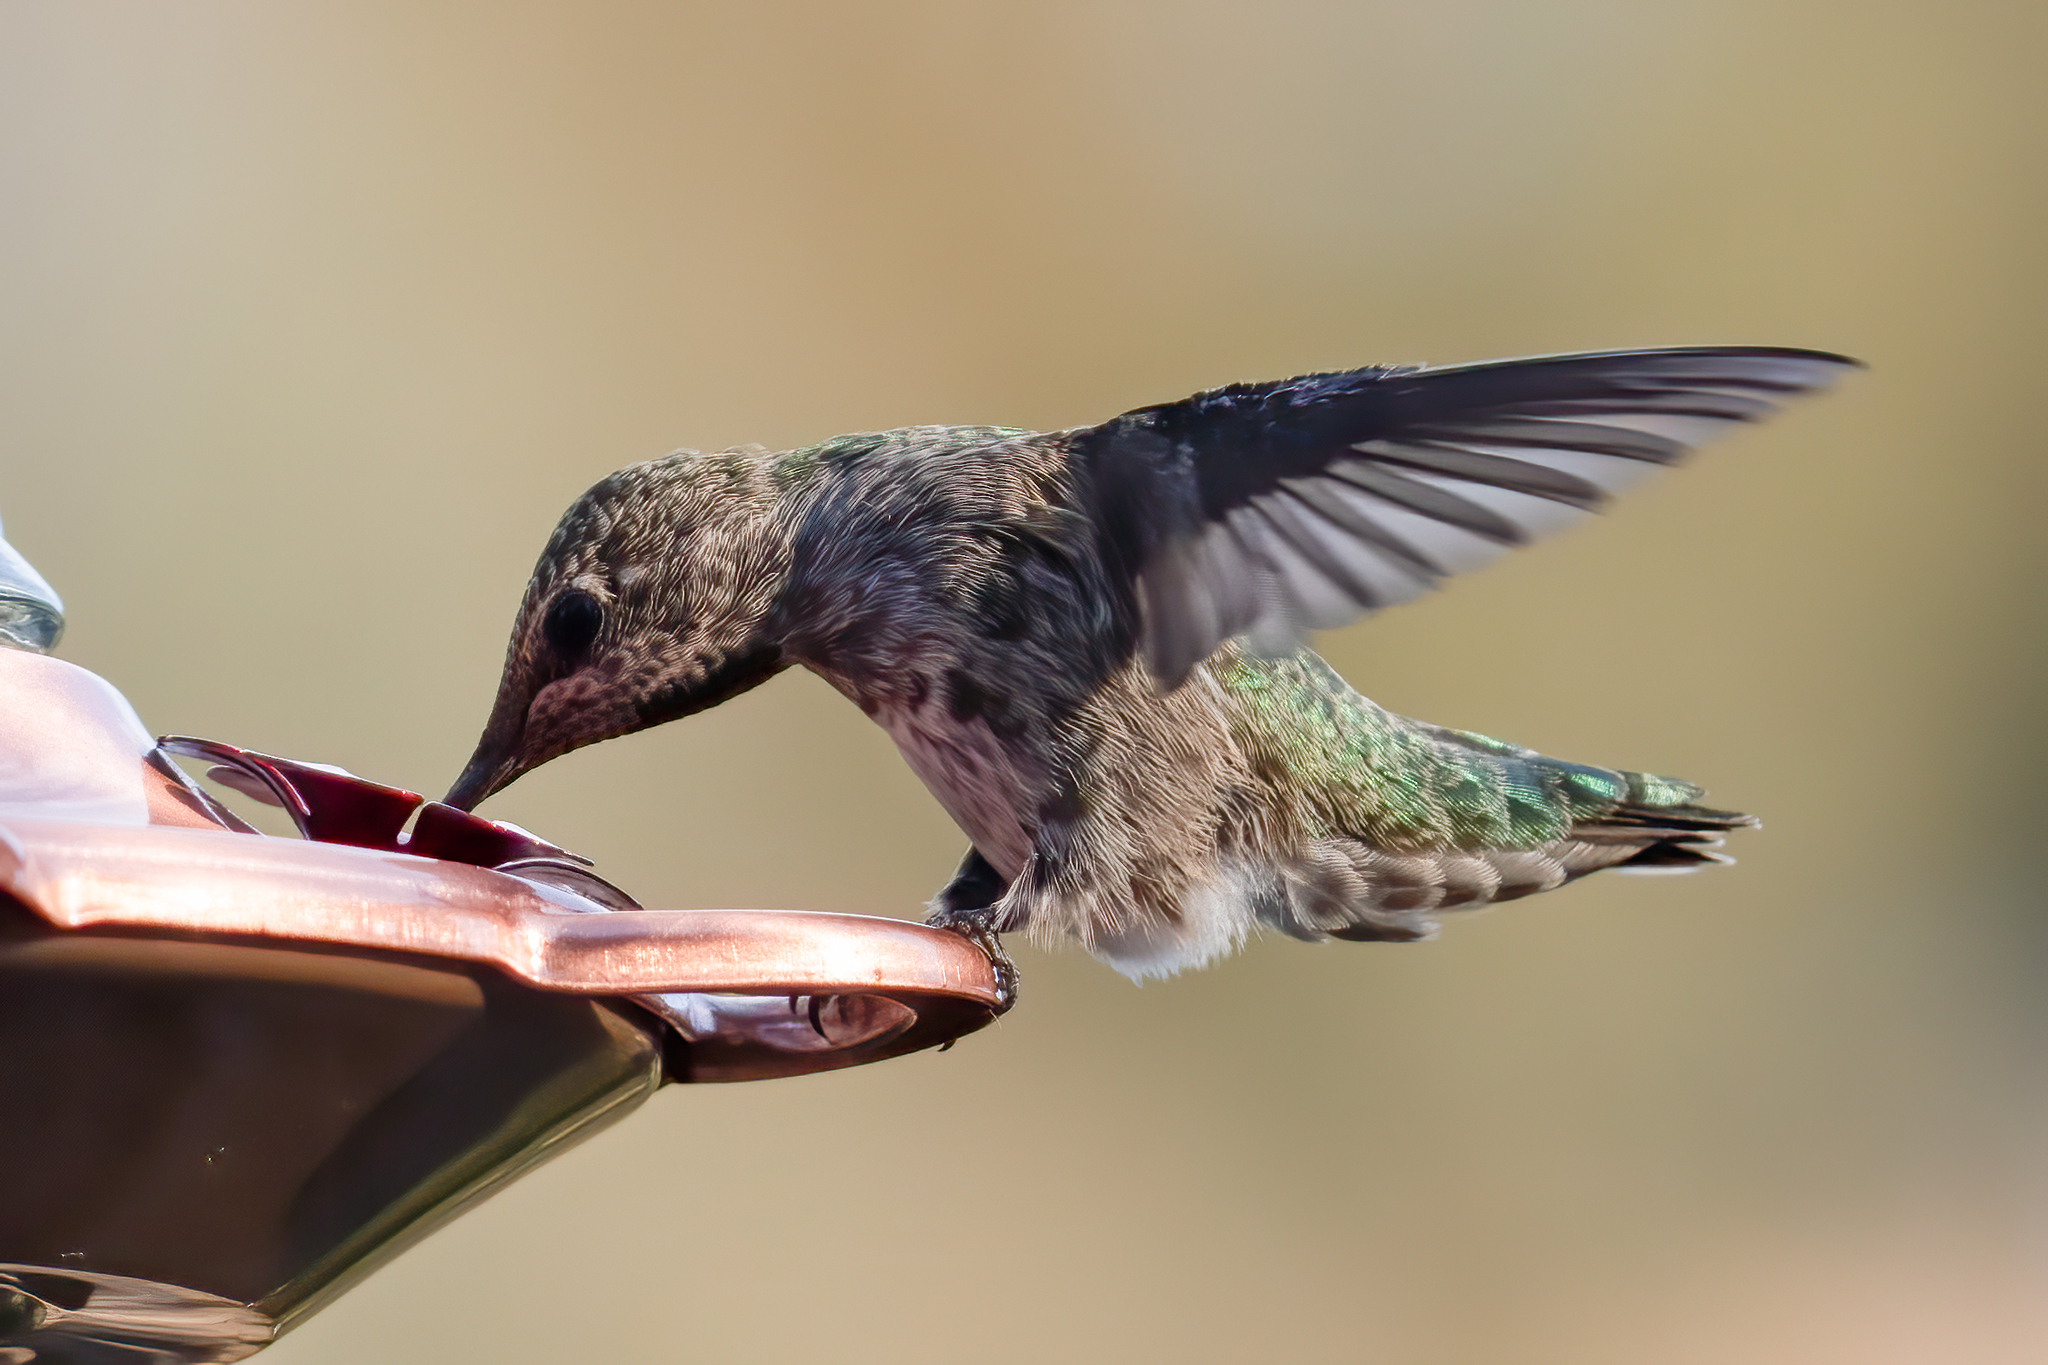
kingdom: Animalia
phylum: Chordata
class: Aves
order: Apodiformes
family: Trochilidae
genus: Calypte
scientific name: Calypte anna
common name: Anna's hummingbird
